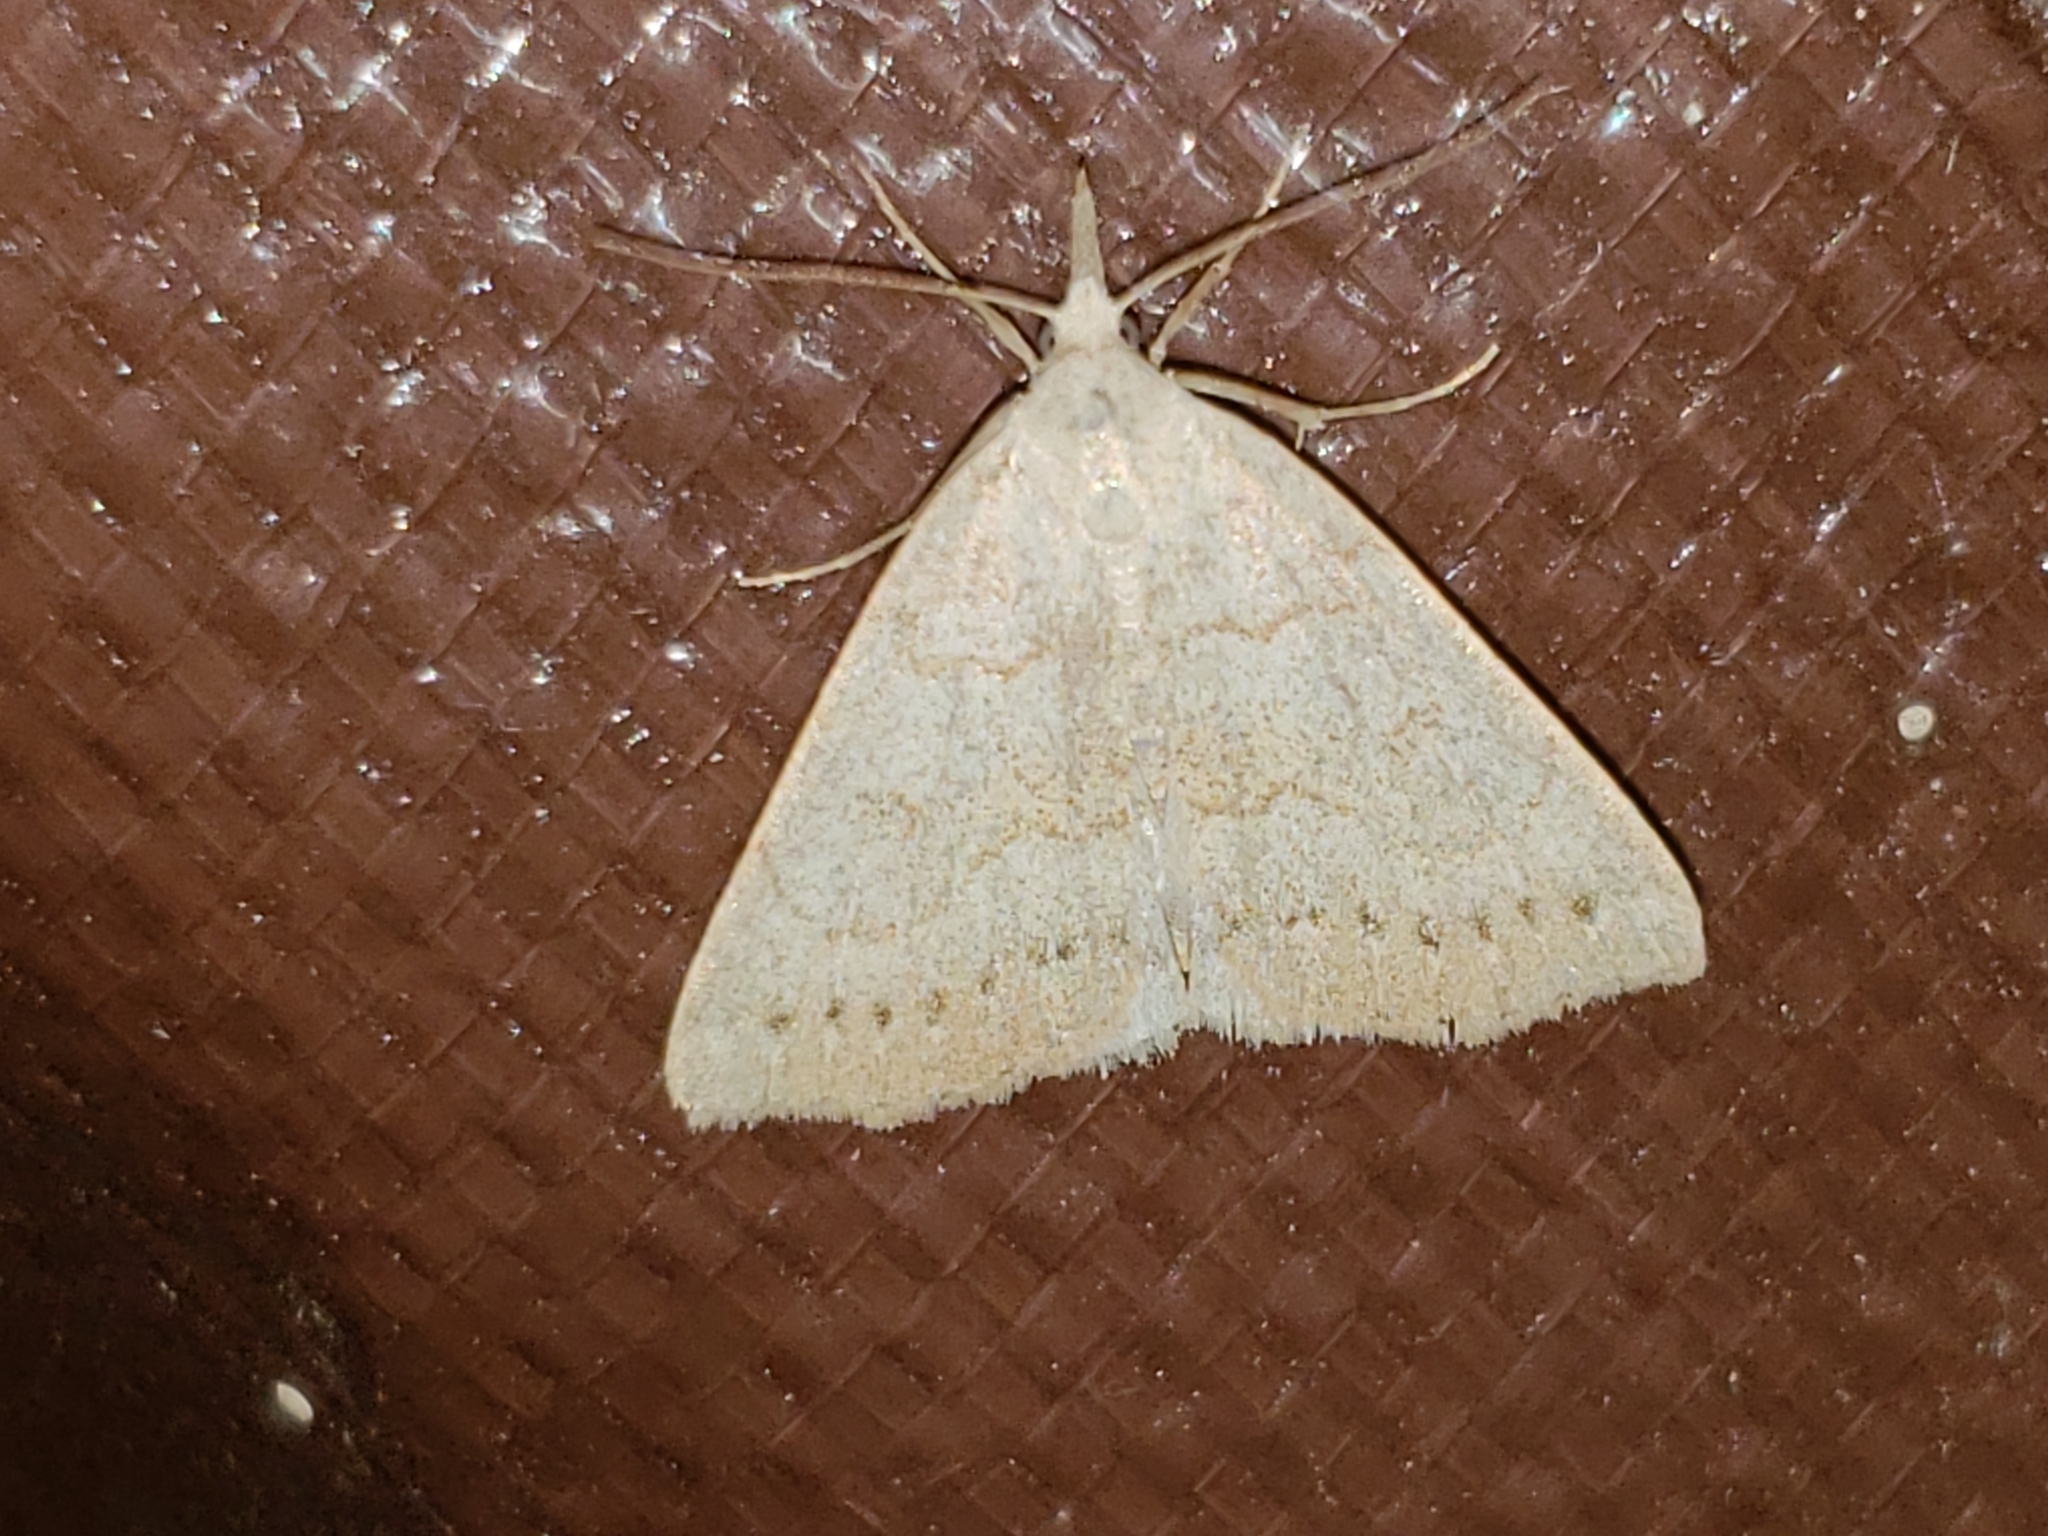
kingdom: Animalia
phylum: Arthropoda
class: Insecta
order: Lepidoptera
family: Erebidae
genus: Macrochilo
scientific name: Macrochilo morbidalis
